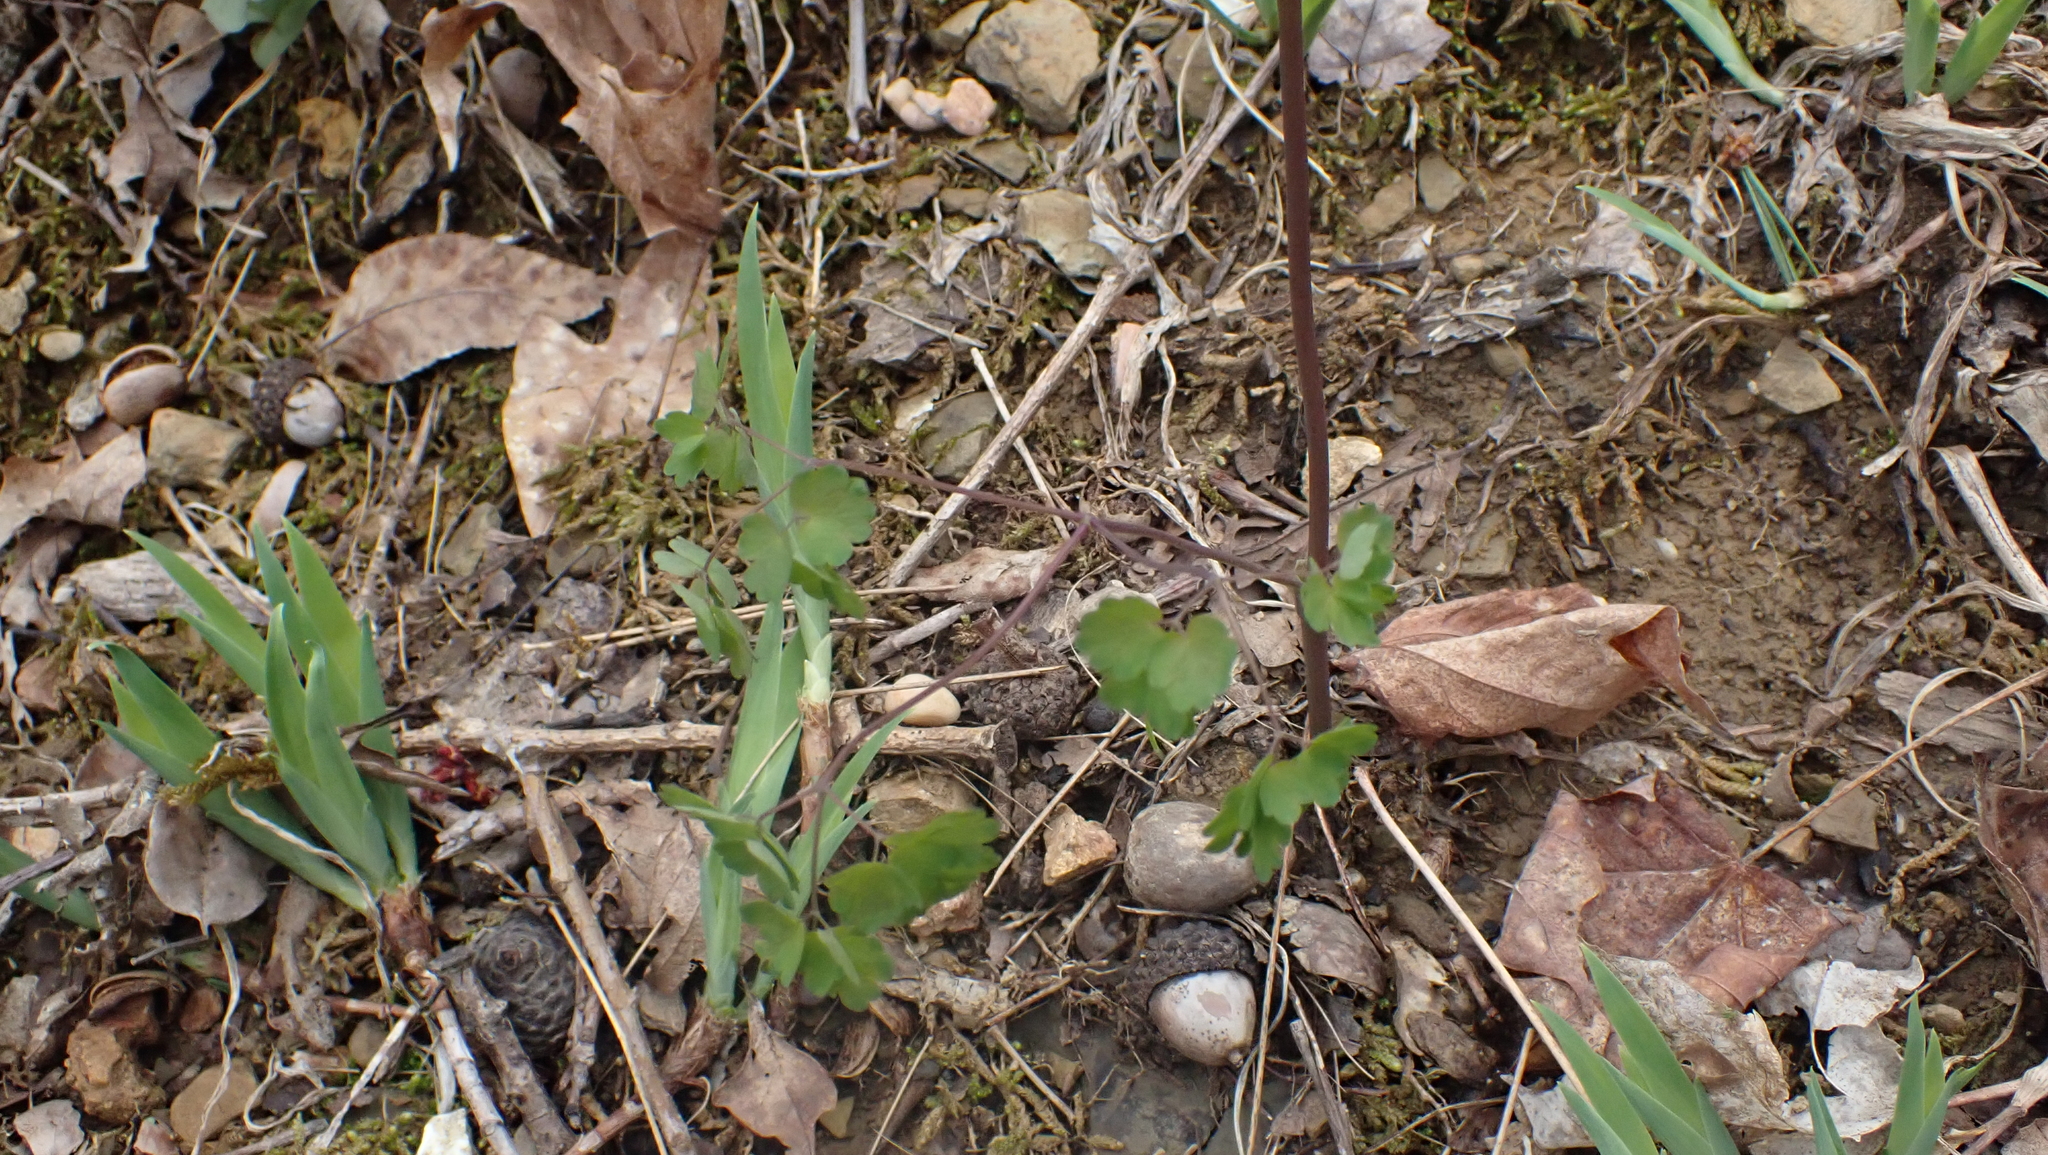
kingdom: Plantae
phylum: Tracheophyta
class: Magnoliopsida
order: Ranunculales
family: Ranunculaceae
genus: Thalictrum
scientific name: Thalictrum dioicum
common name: Early meadow-rue
